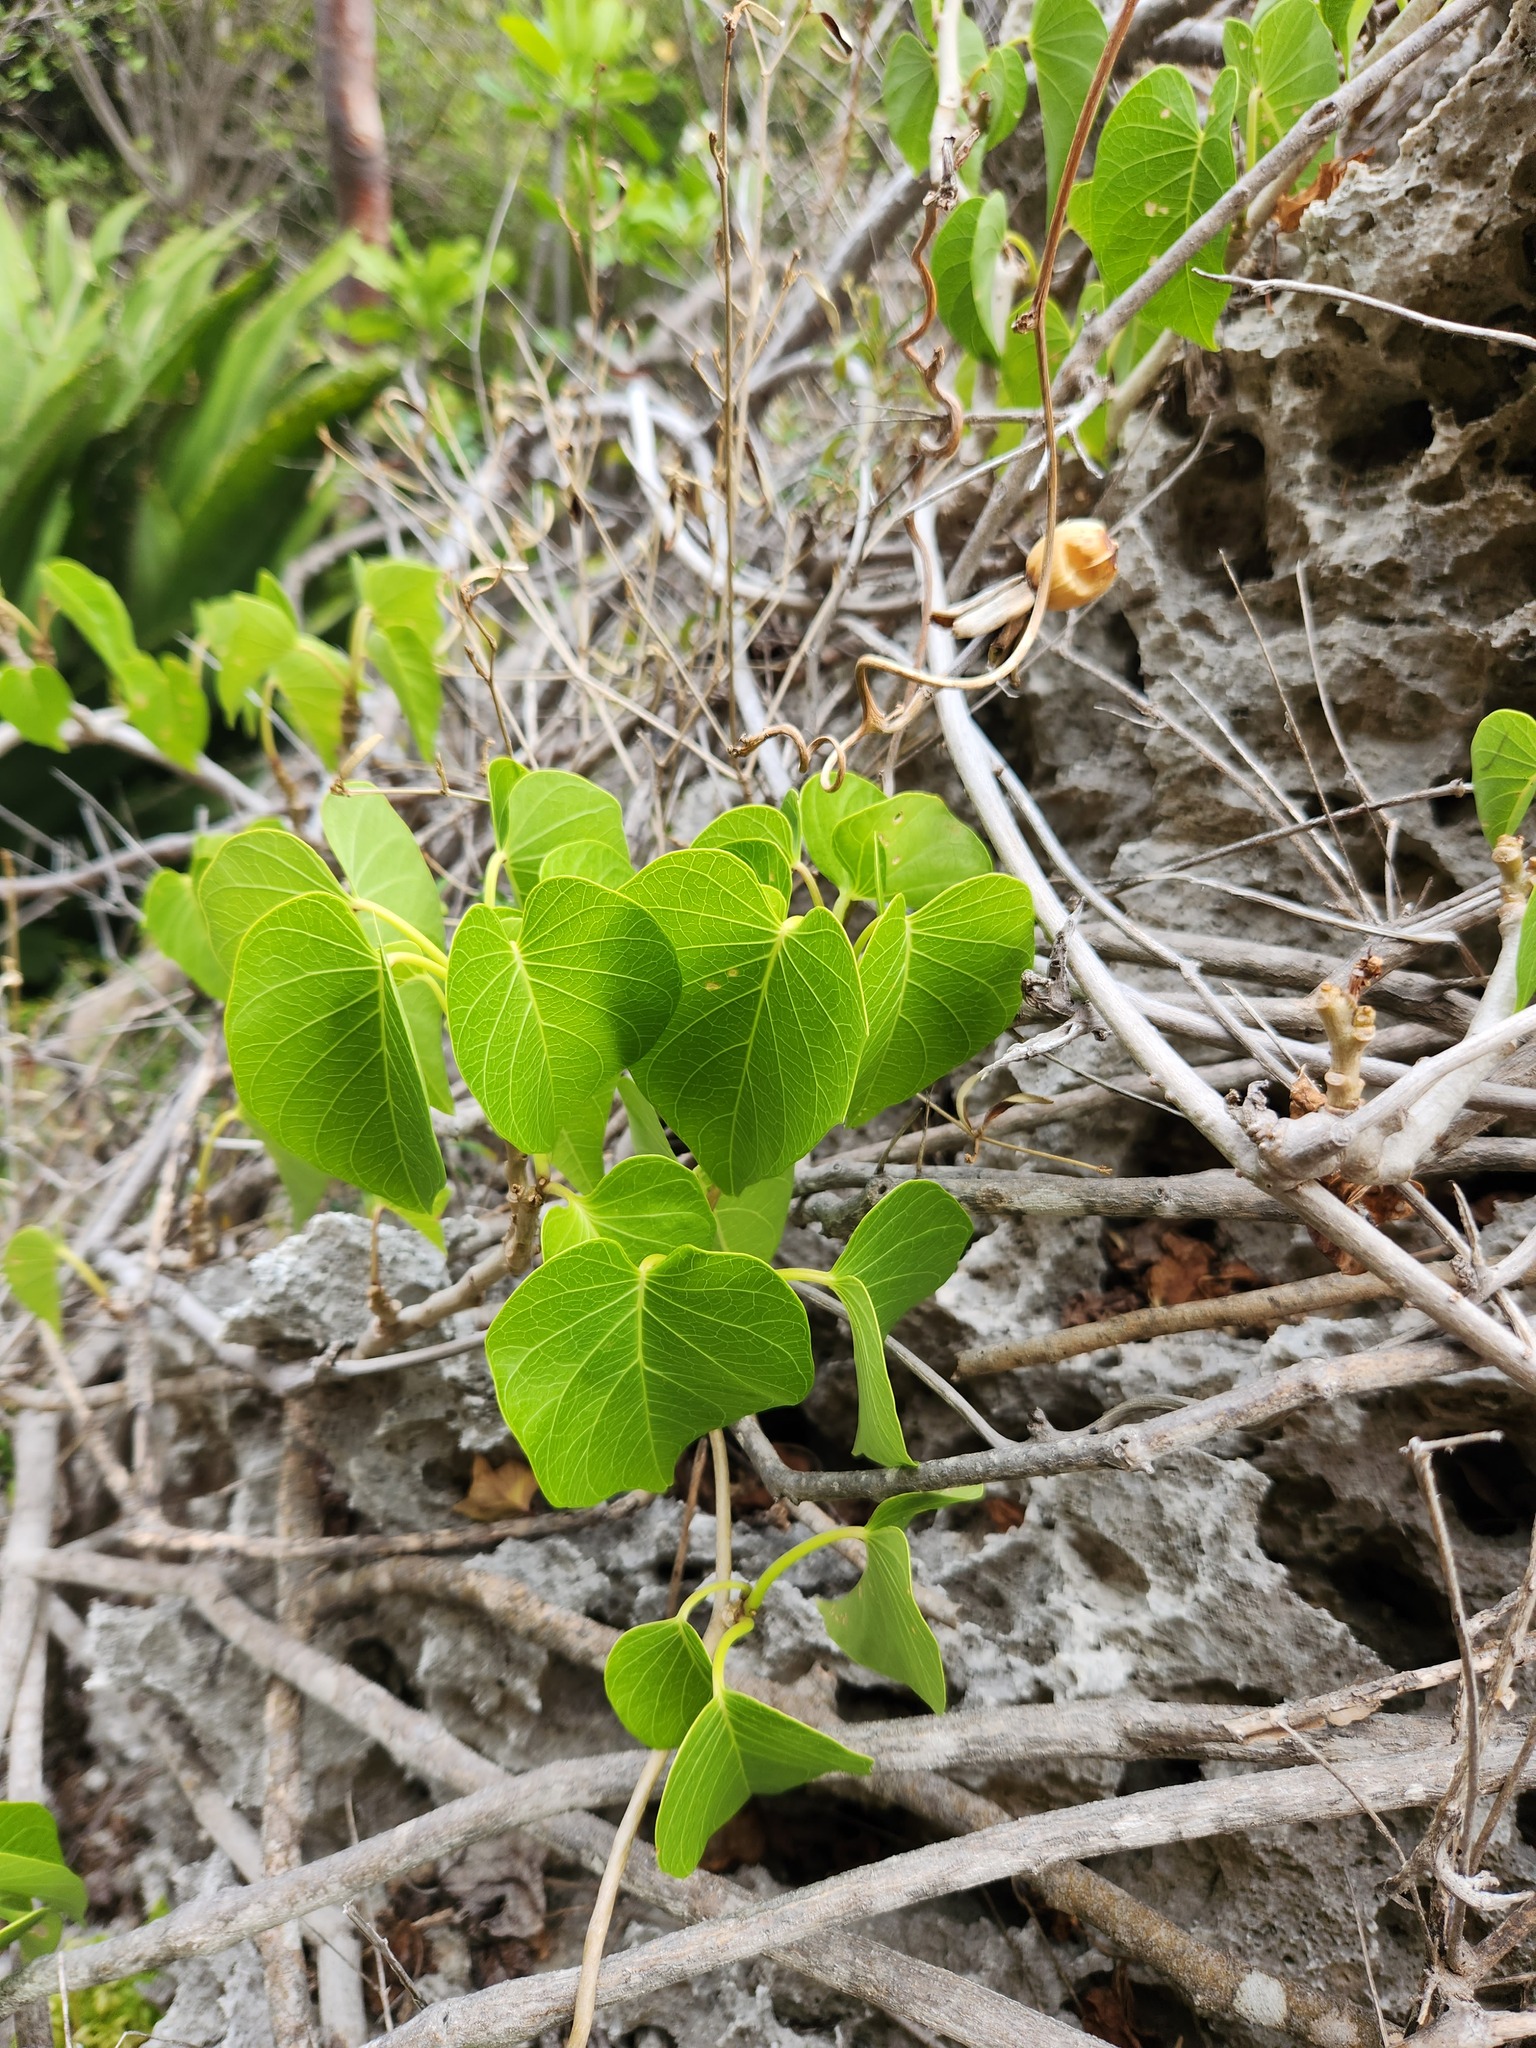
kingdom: Plantae
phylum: Tracheophyta
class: Magnoliopsida
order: Solanales
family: Convolvulaceae
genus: Ipomoea
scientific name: Ipomoea violacea
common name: Beach moonflower
